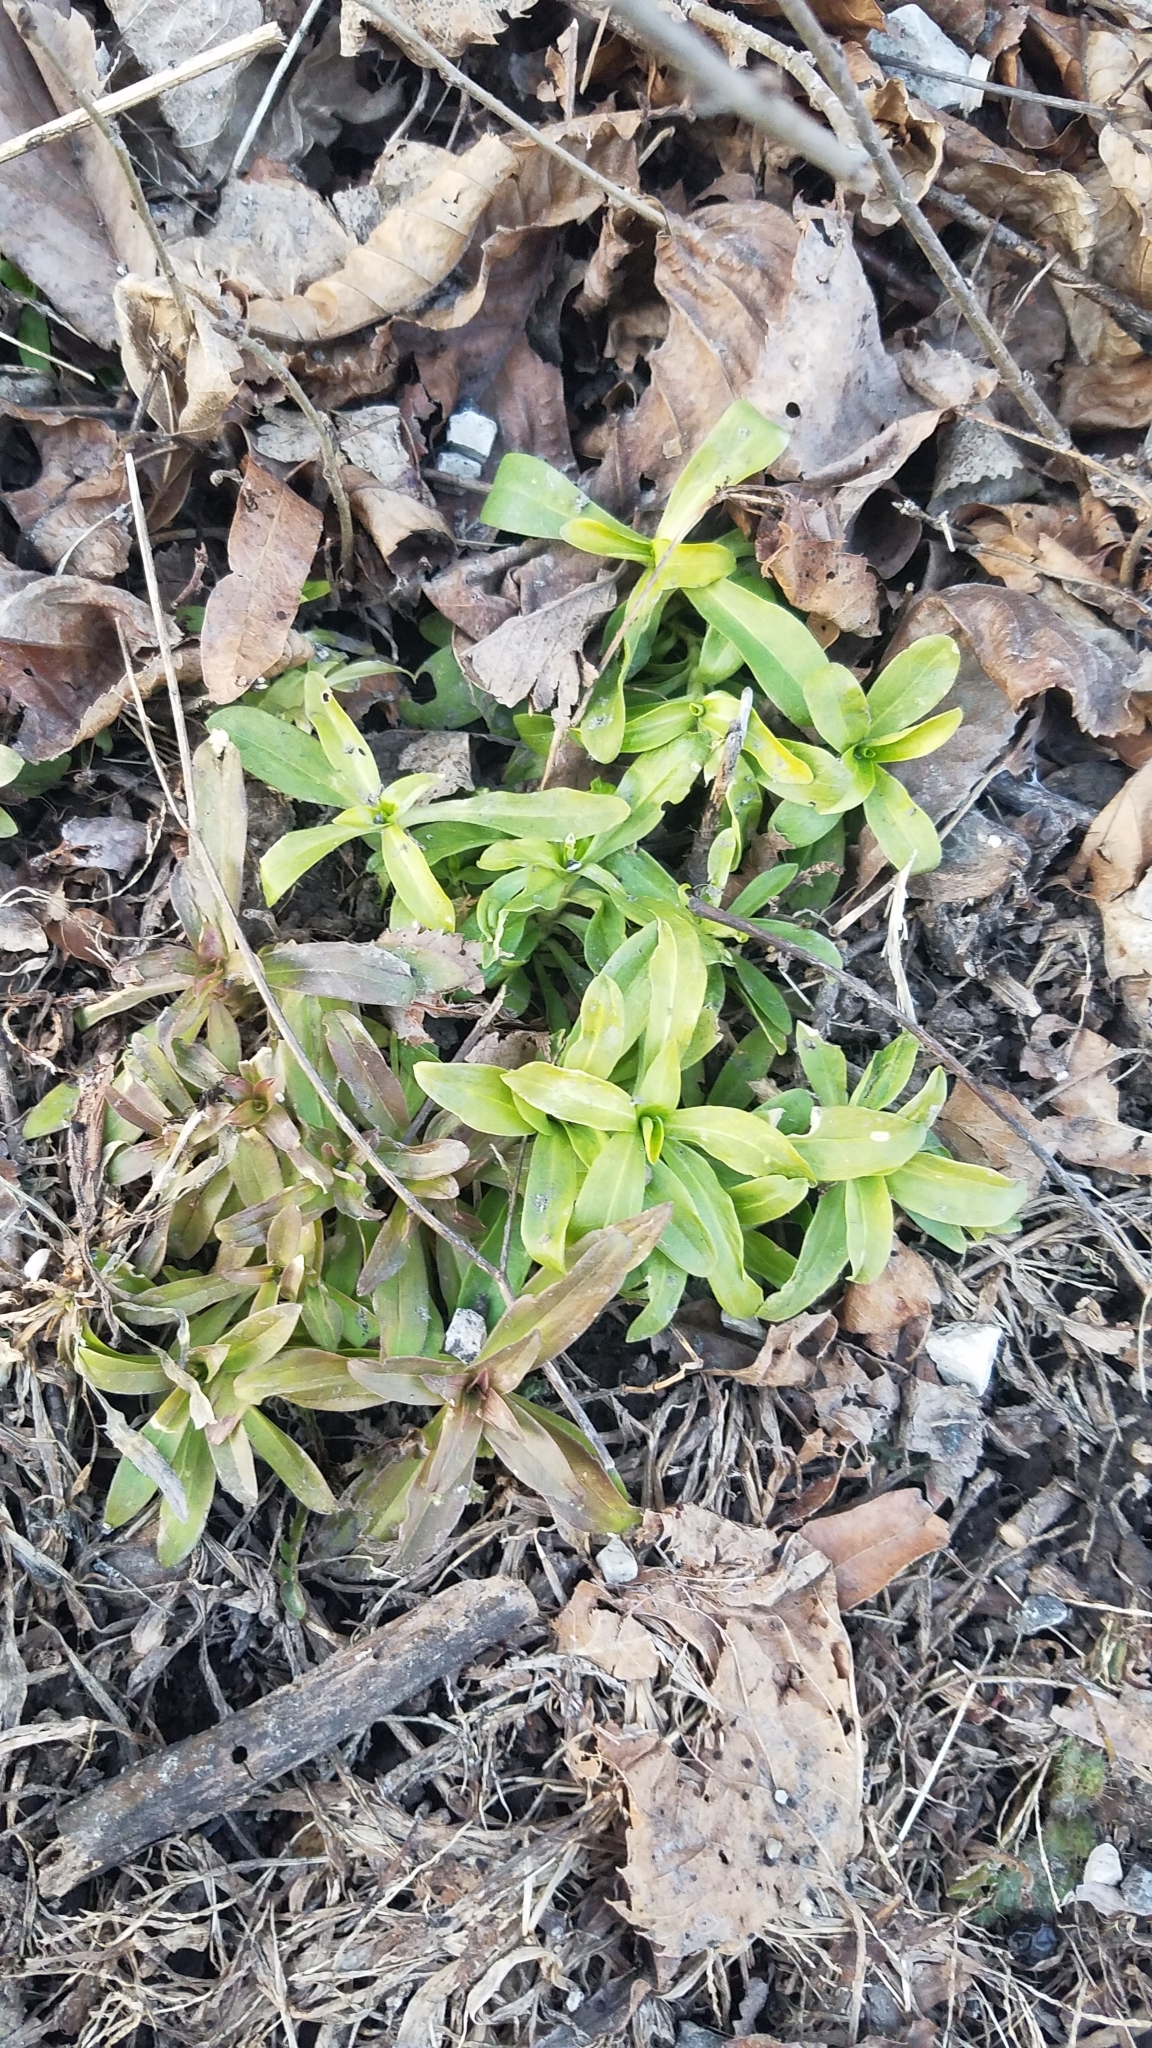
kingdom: Plantae
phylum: Tracheophyta
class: Magnoliopsida
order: Caryophyllales
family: Caryophyllaceae
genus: Saponaria
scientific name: Saponaria officinalis
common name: Soapwort
